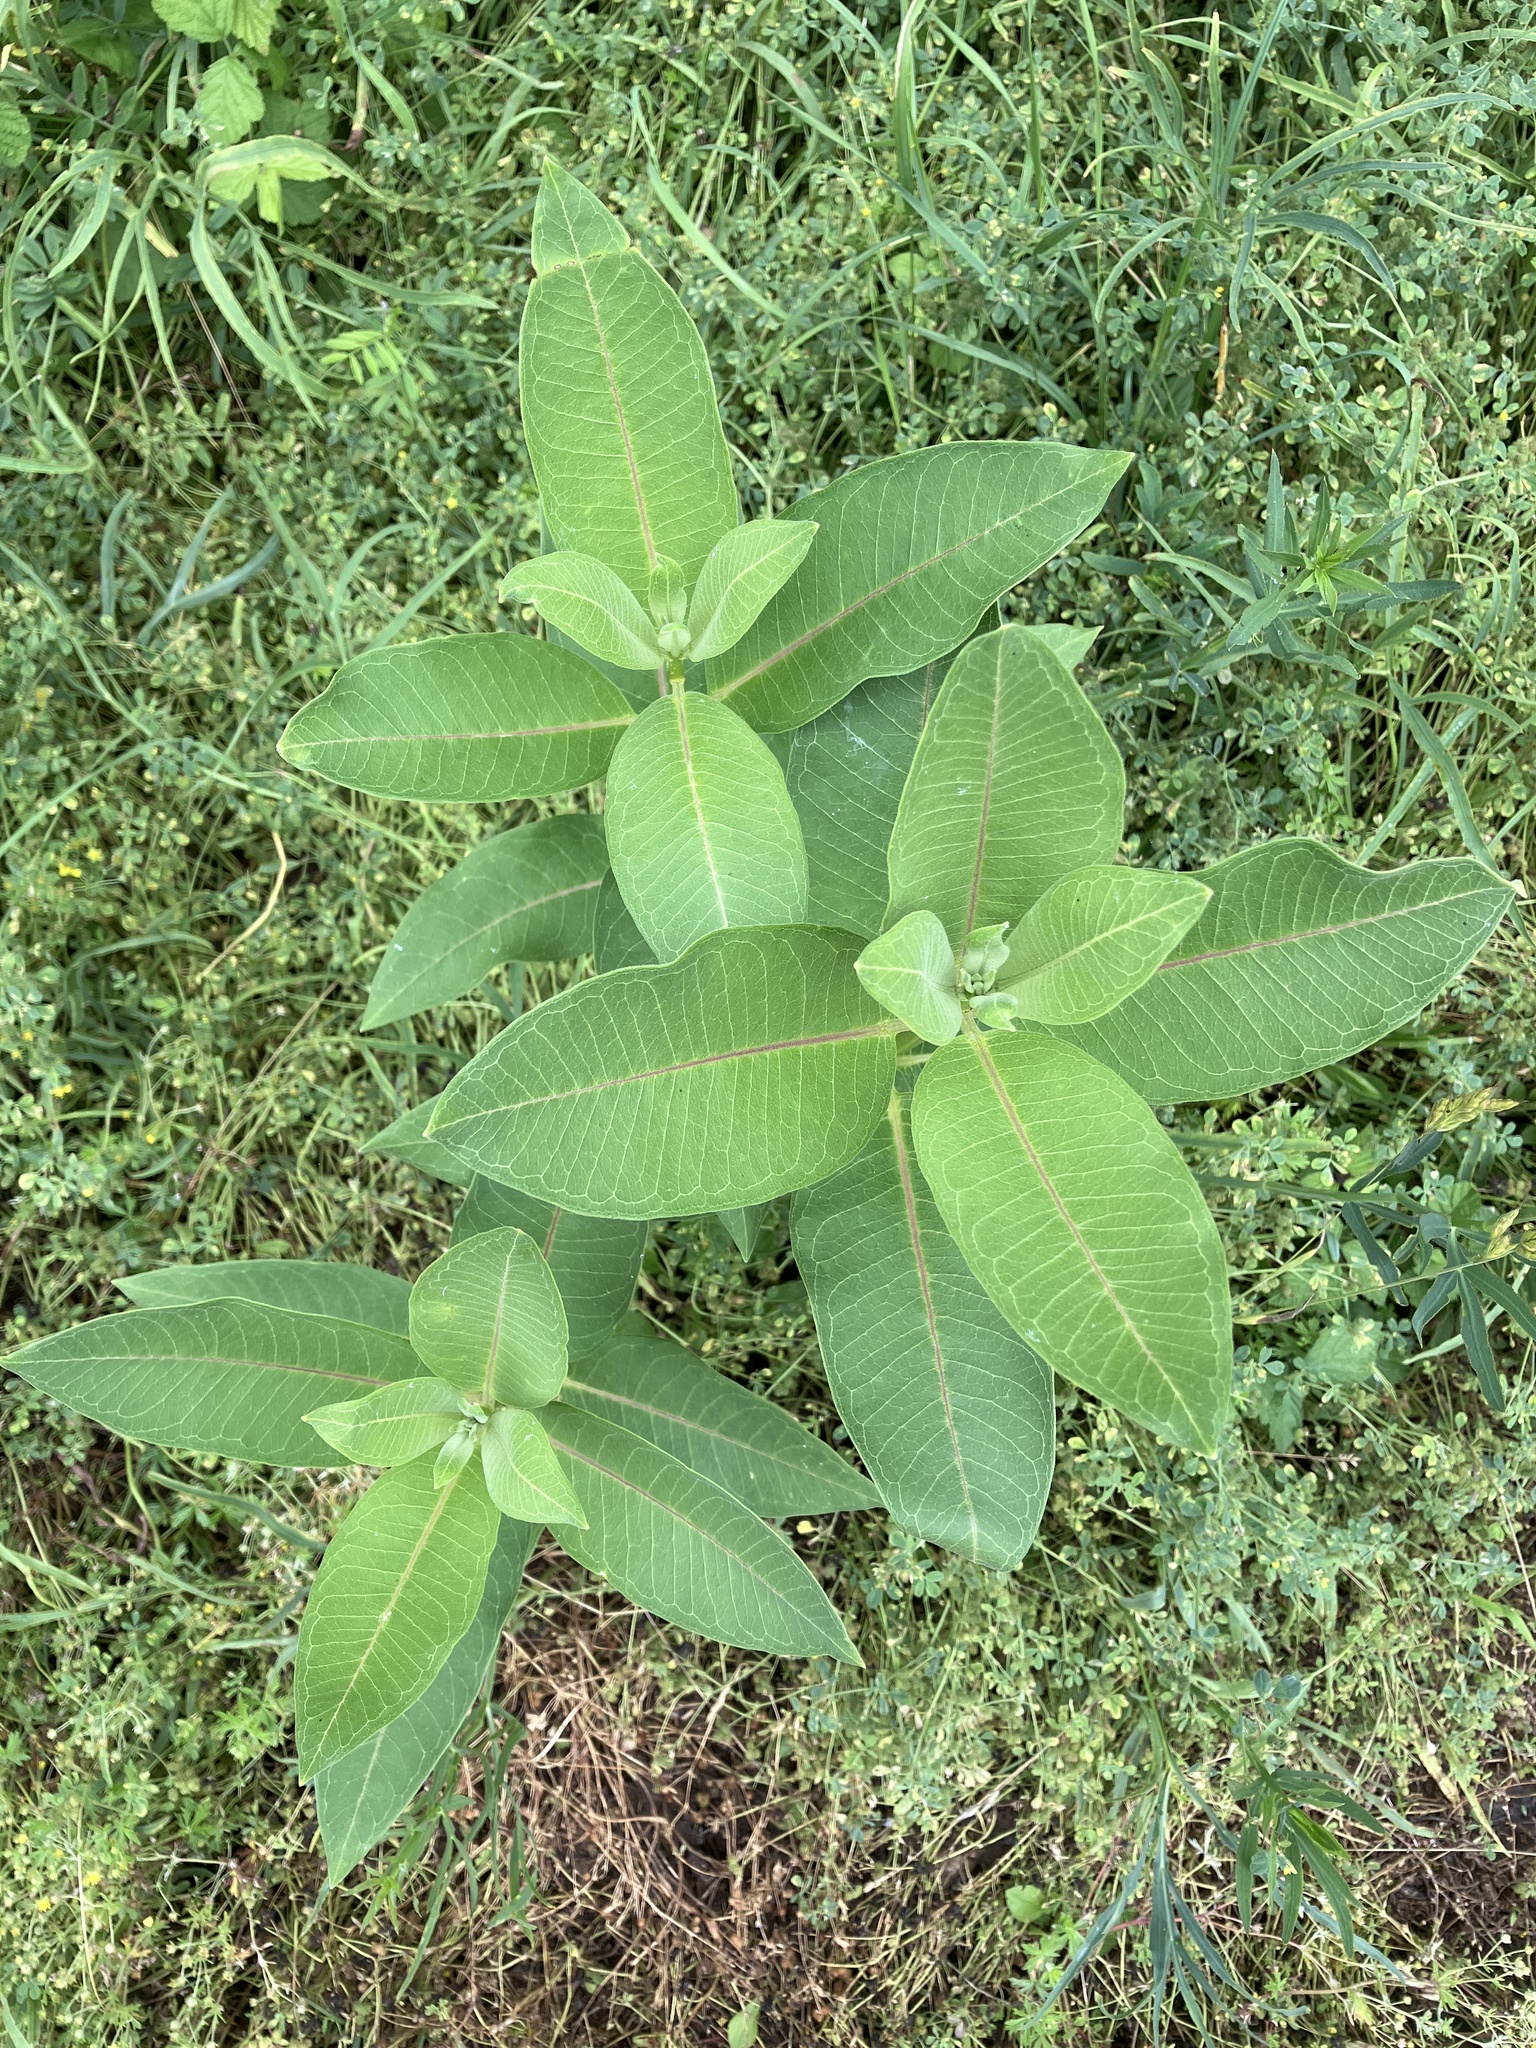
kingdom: Plantae
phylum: Tracheophyta
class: Magnoliopsida
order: Gentianales
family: Apocynaceae
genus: Asclepias
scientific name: Asclepias syriaca
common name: Common milkweed
